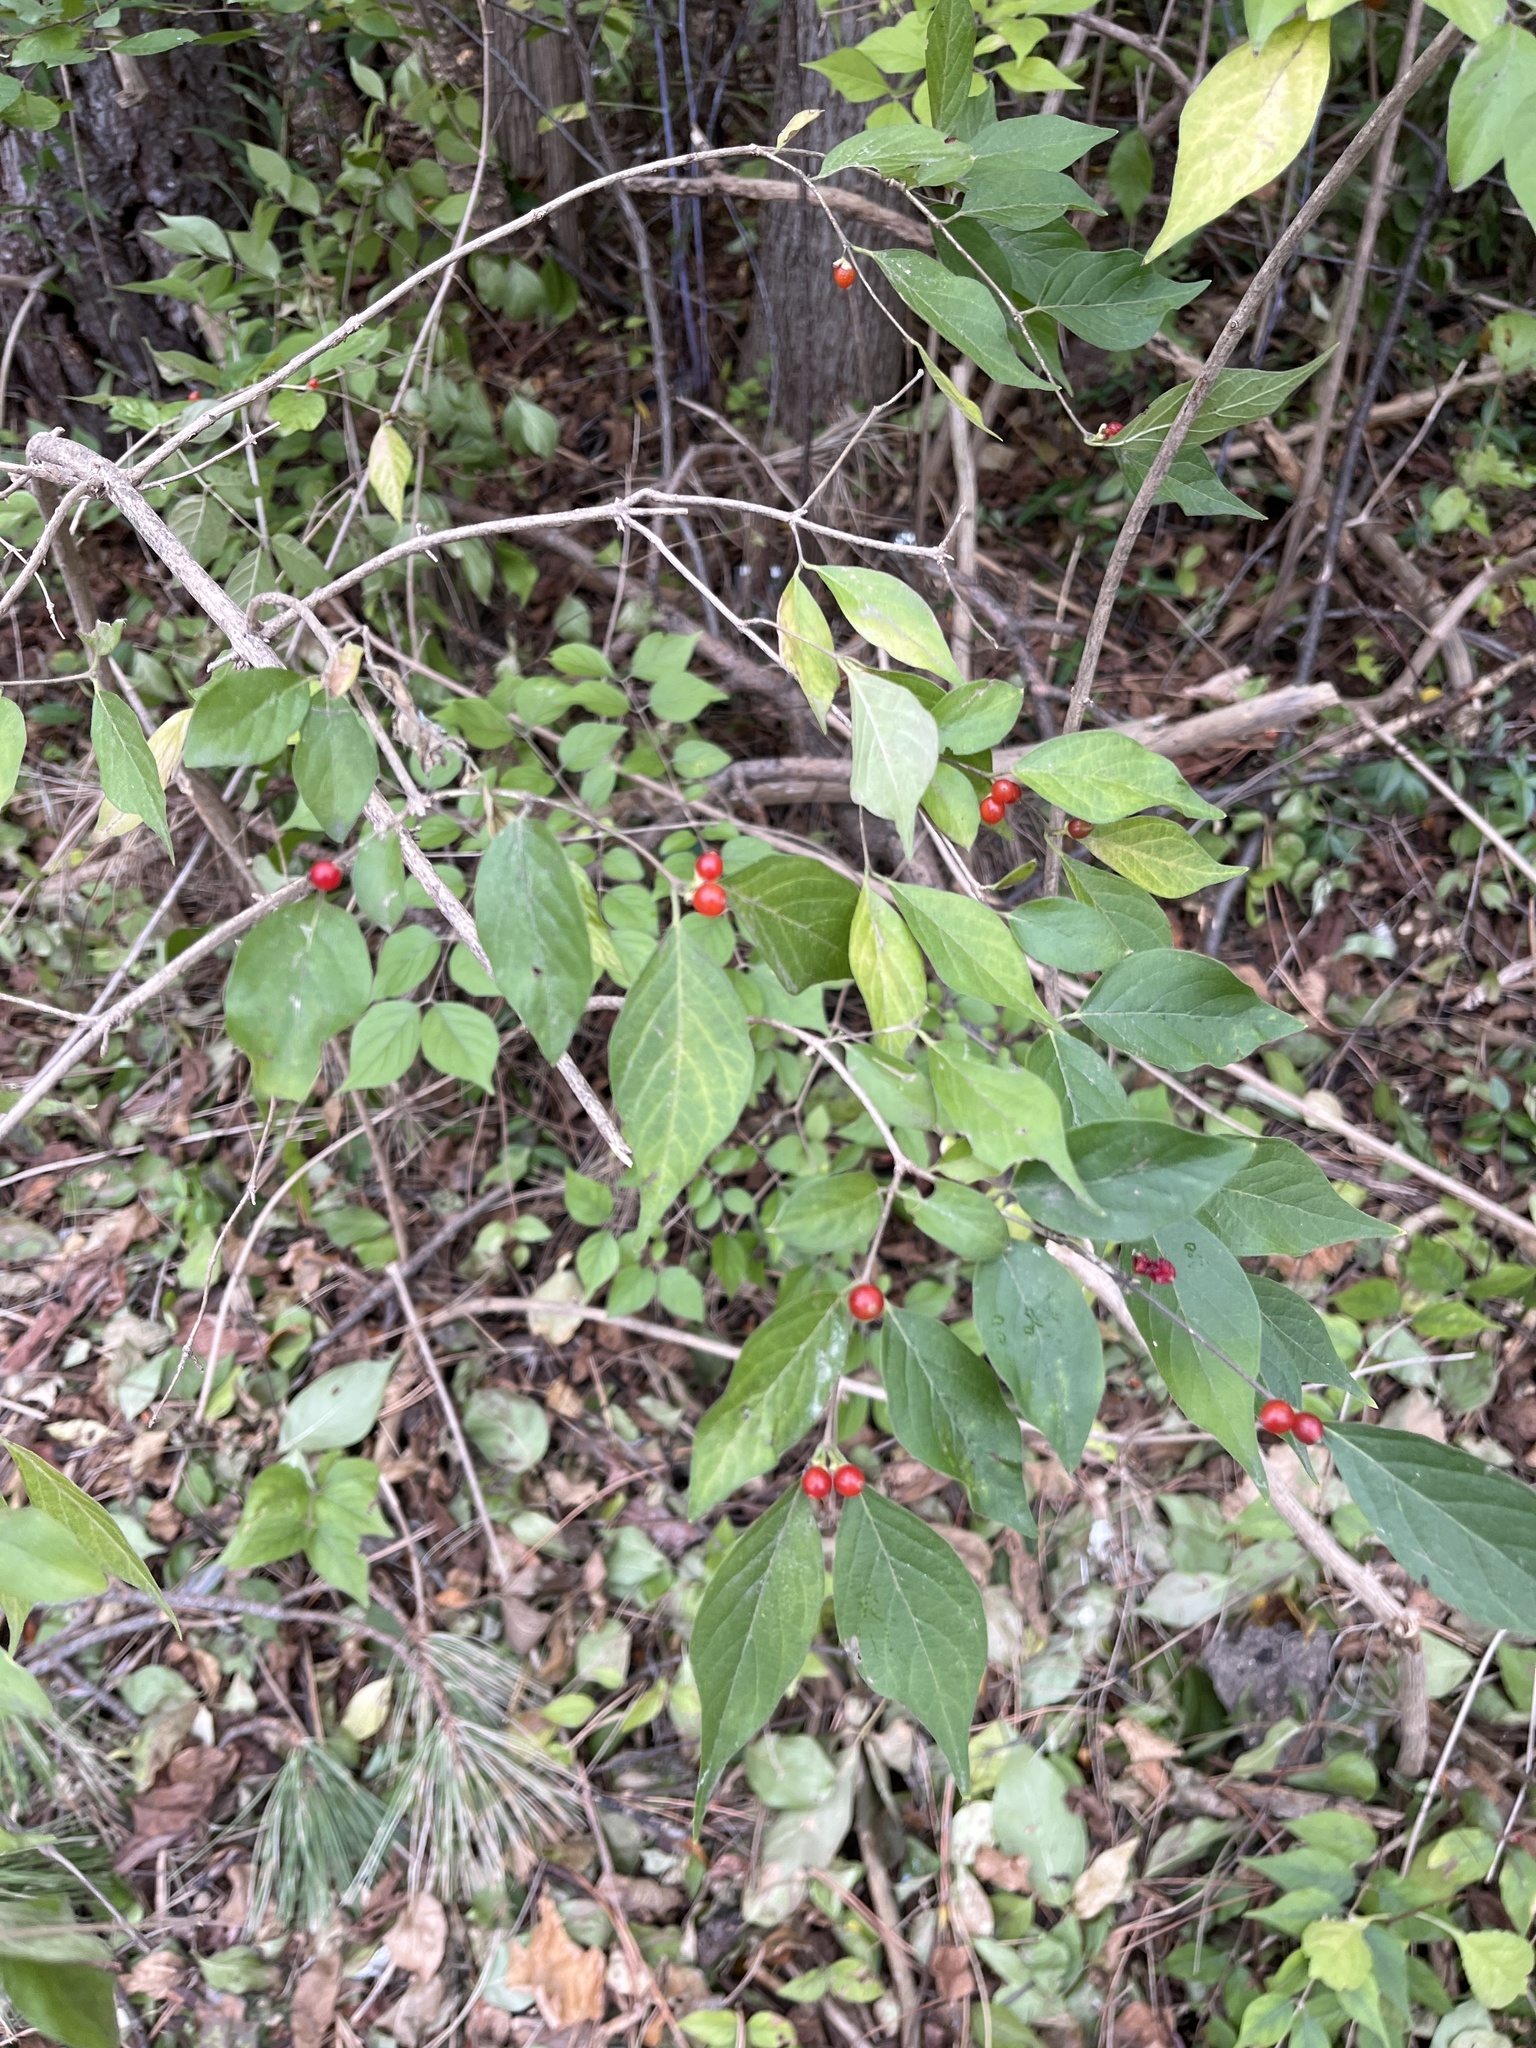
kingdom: Plantae
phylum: Tracheophyta
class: Magnoliopsida
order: Dipsacales
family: Caprifoliaceae
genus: Lonicera
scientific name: Lonicera maackii
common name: Amur honeysuckle
